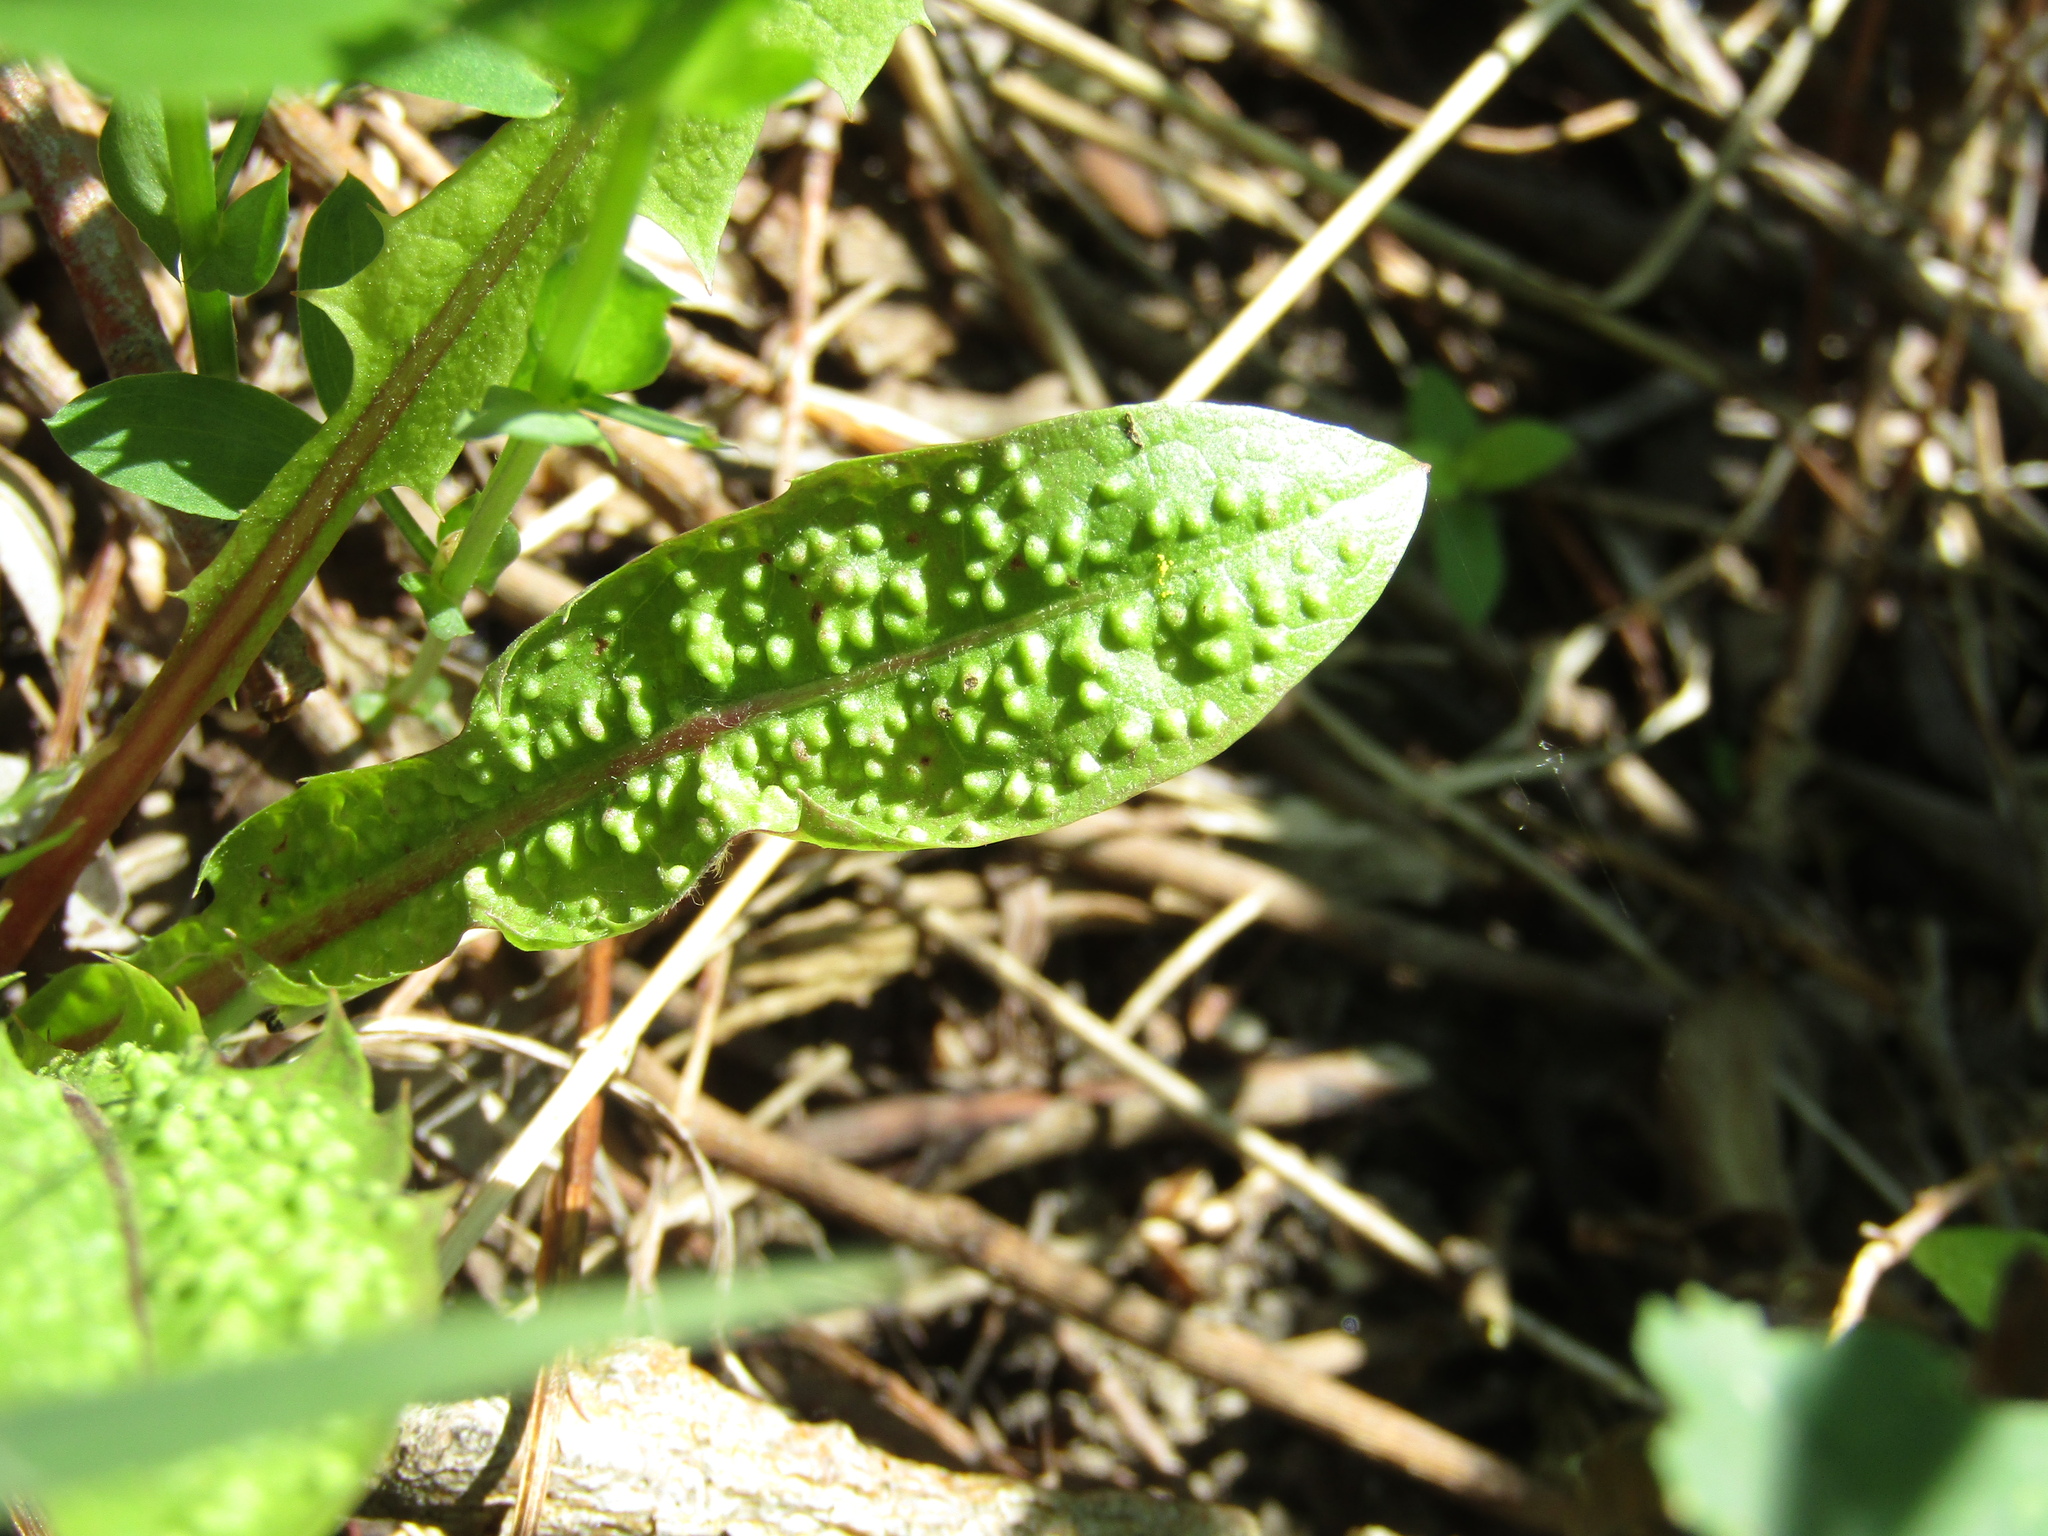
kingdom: Plantae
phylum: Tracheophyta
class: Magnoliopsida
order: Asterales
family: Asteraceae
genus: Taraxacum
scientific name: Taraxacum officinale
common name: Common dandelion
